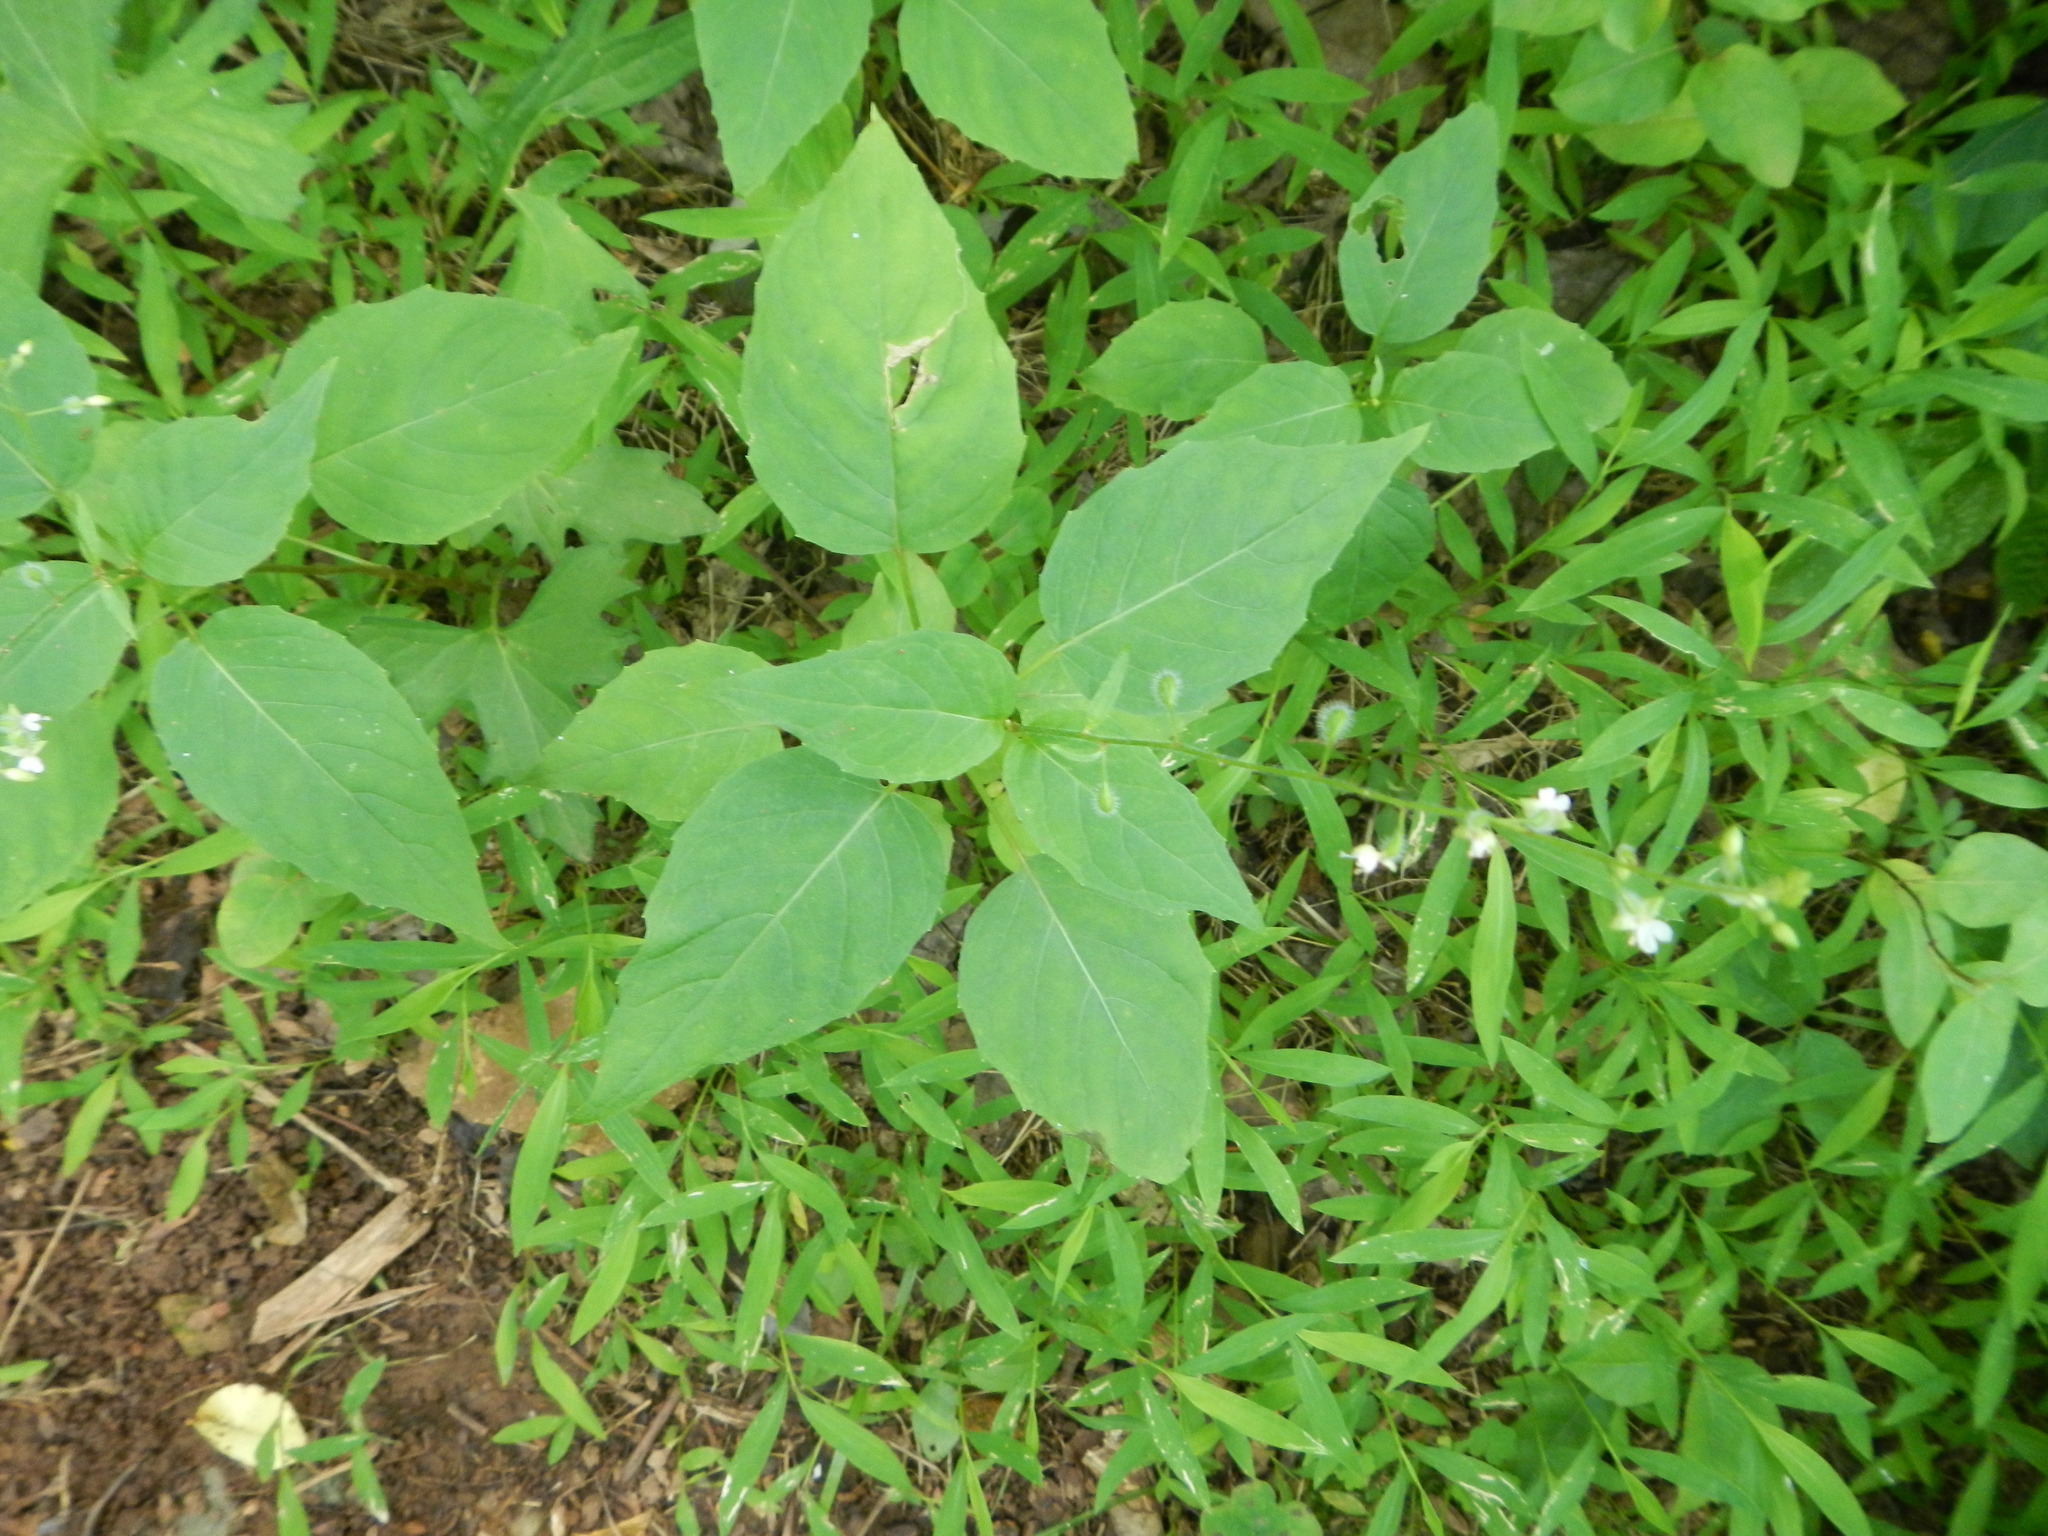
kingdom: Plantae
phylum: Tracheophyta
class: Magnoliopsida
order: Myrtales
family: Onagraceae
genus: Circaea
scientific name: Circaea canadensis
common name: Broad-leaved enchanter's nightshade
